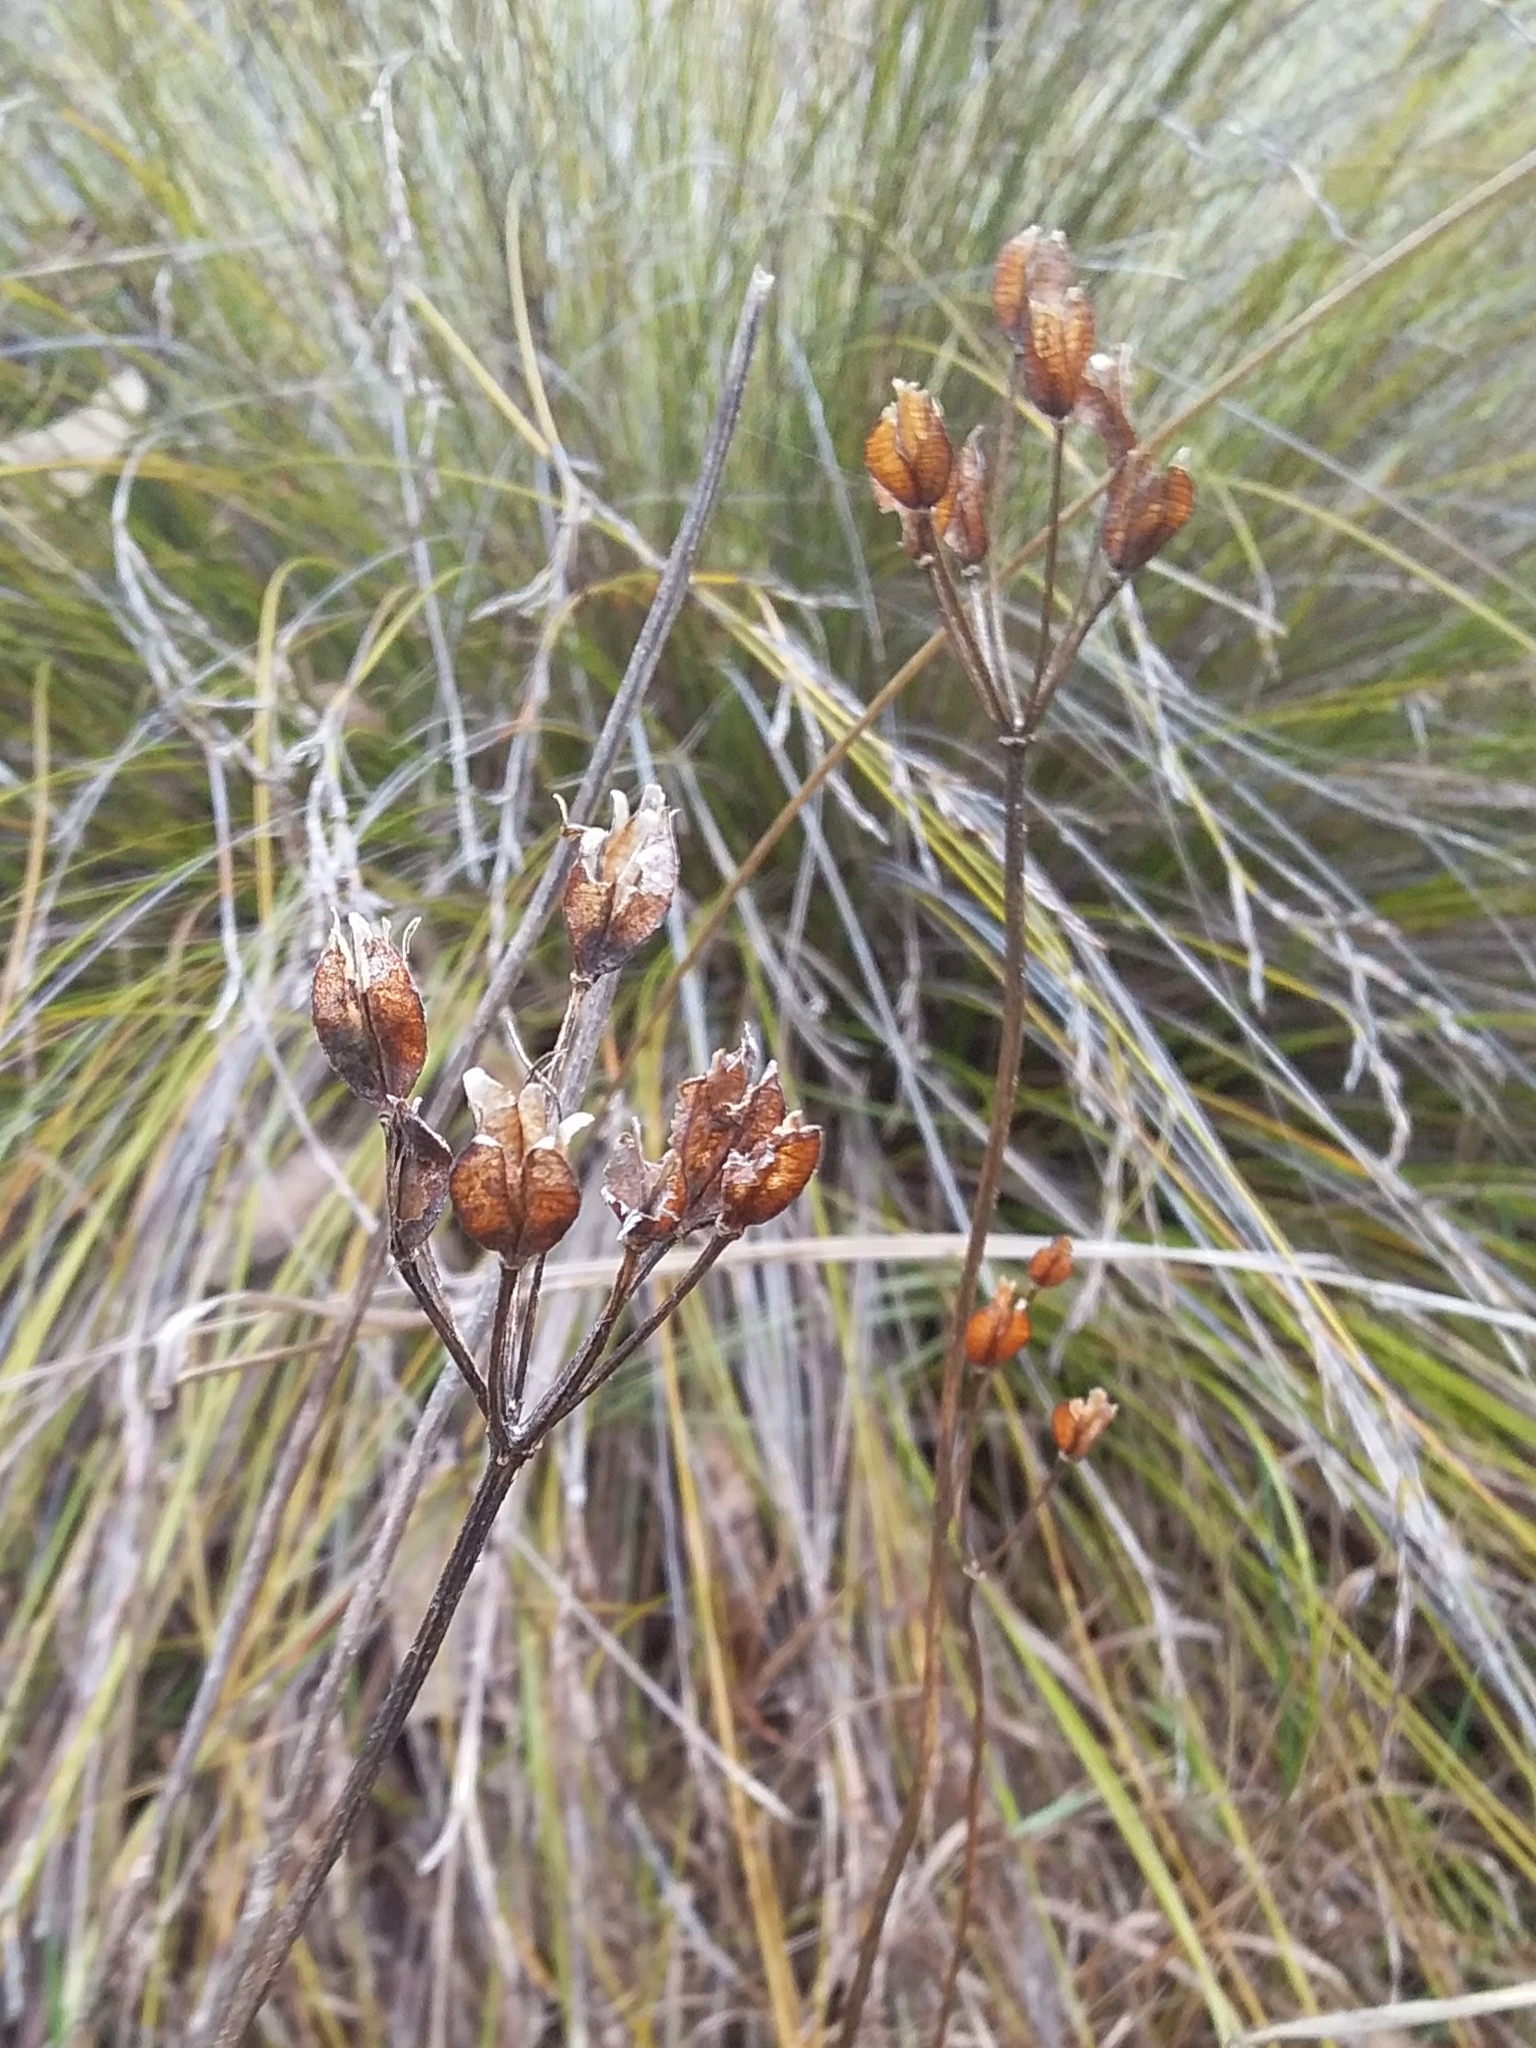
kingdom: Plantae
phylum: Tracheophyta
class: Liliopsida
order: Liliales
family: Colchicaceae
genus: Burchardia
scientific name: Burchardia umbellata
